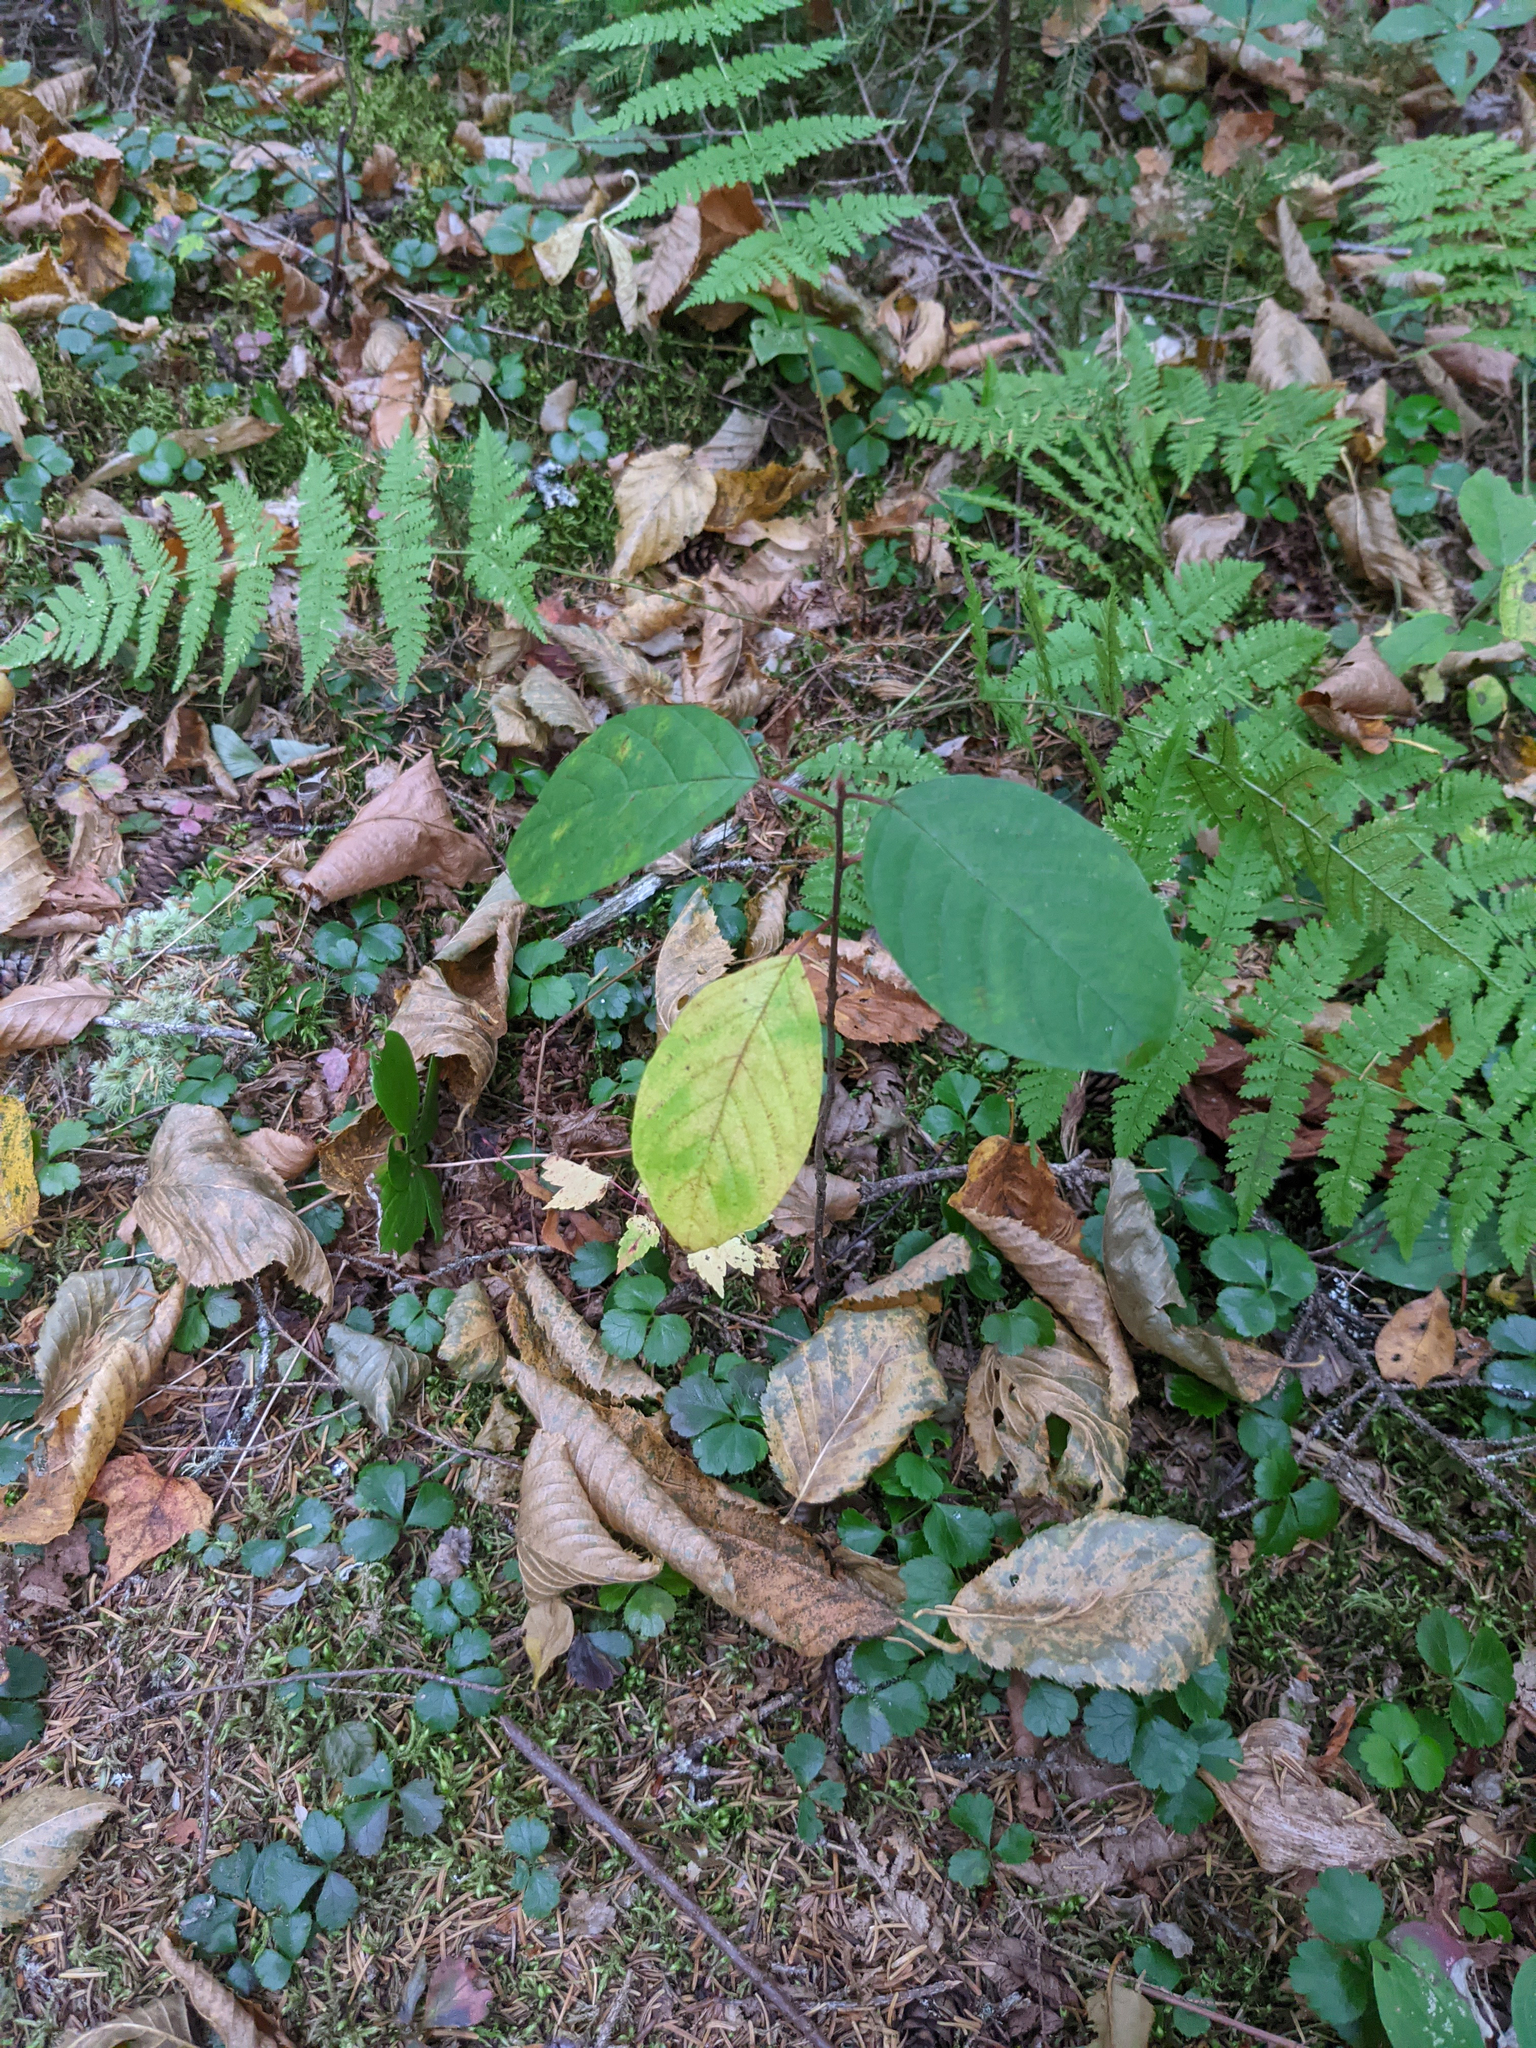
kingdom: Plantae
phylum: Tracheophyta
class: Magnoliopsida
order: Rosales
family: Rhamnaceae
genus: Frangula
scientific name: Frangula alnus
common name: Alder buckthorn
